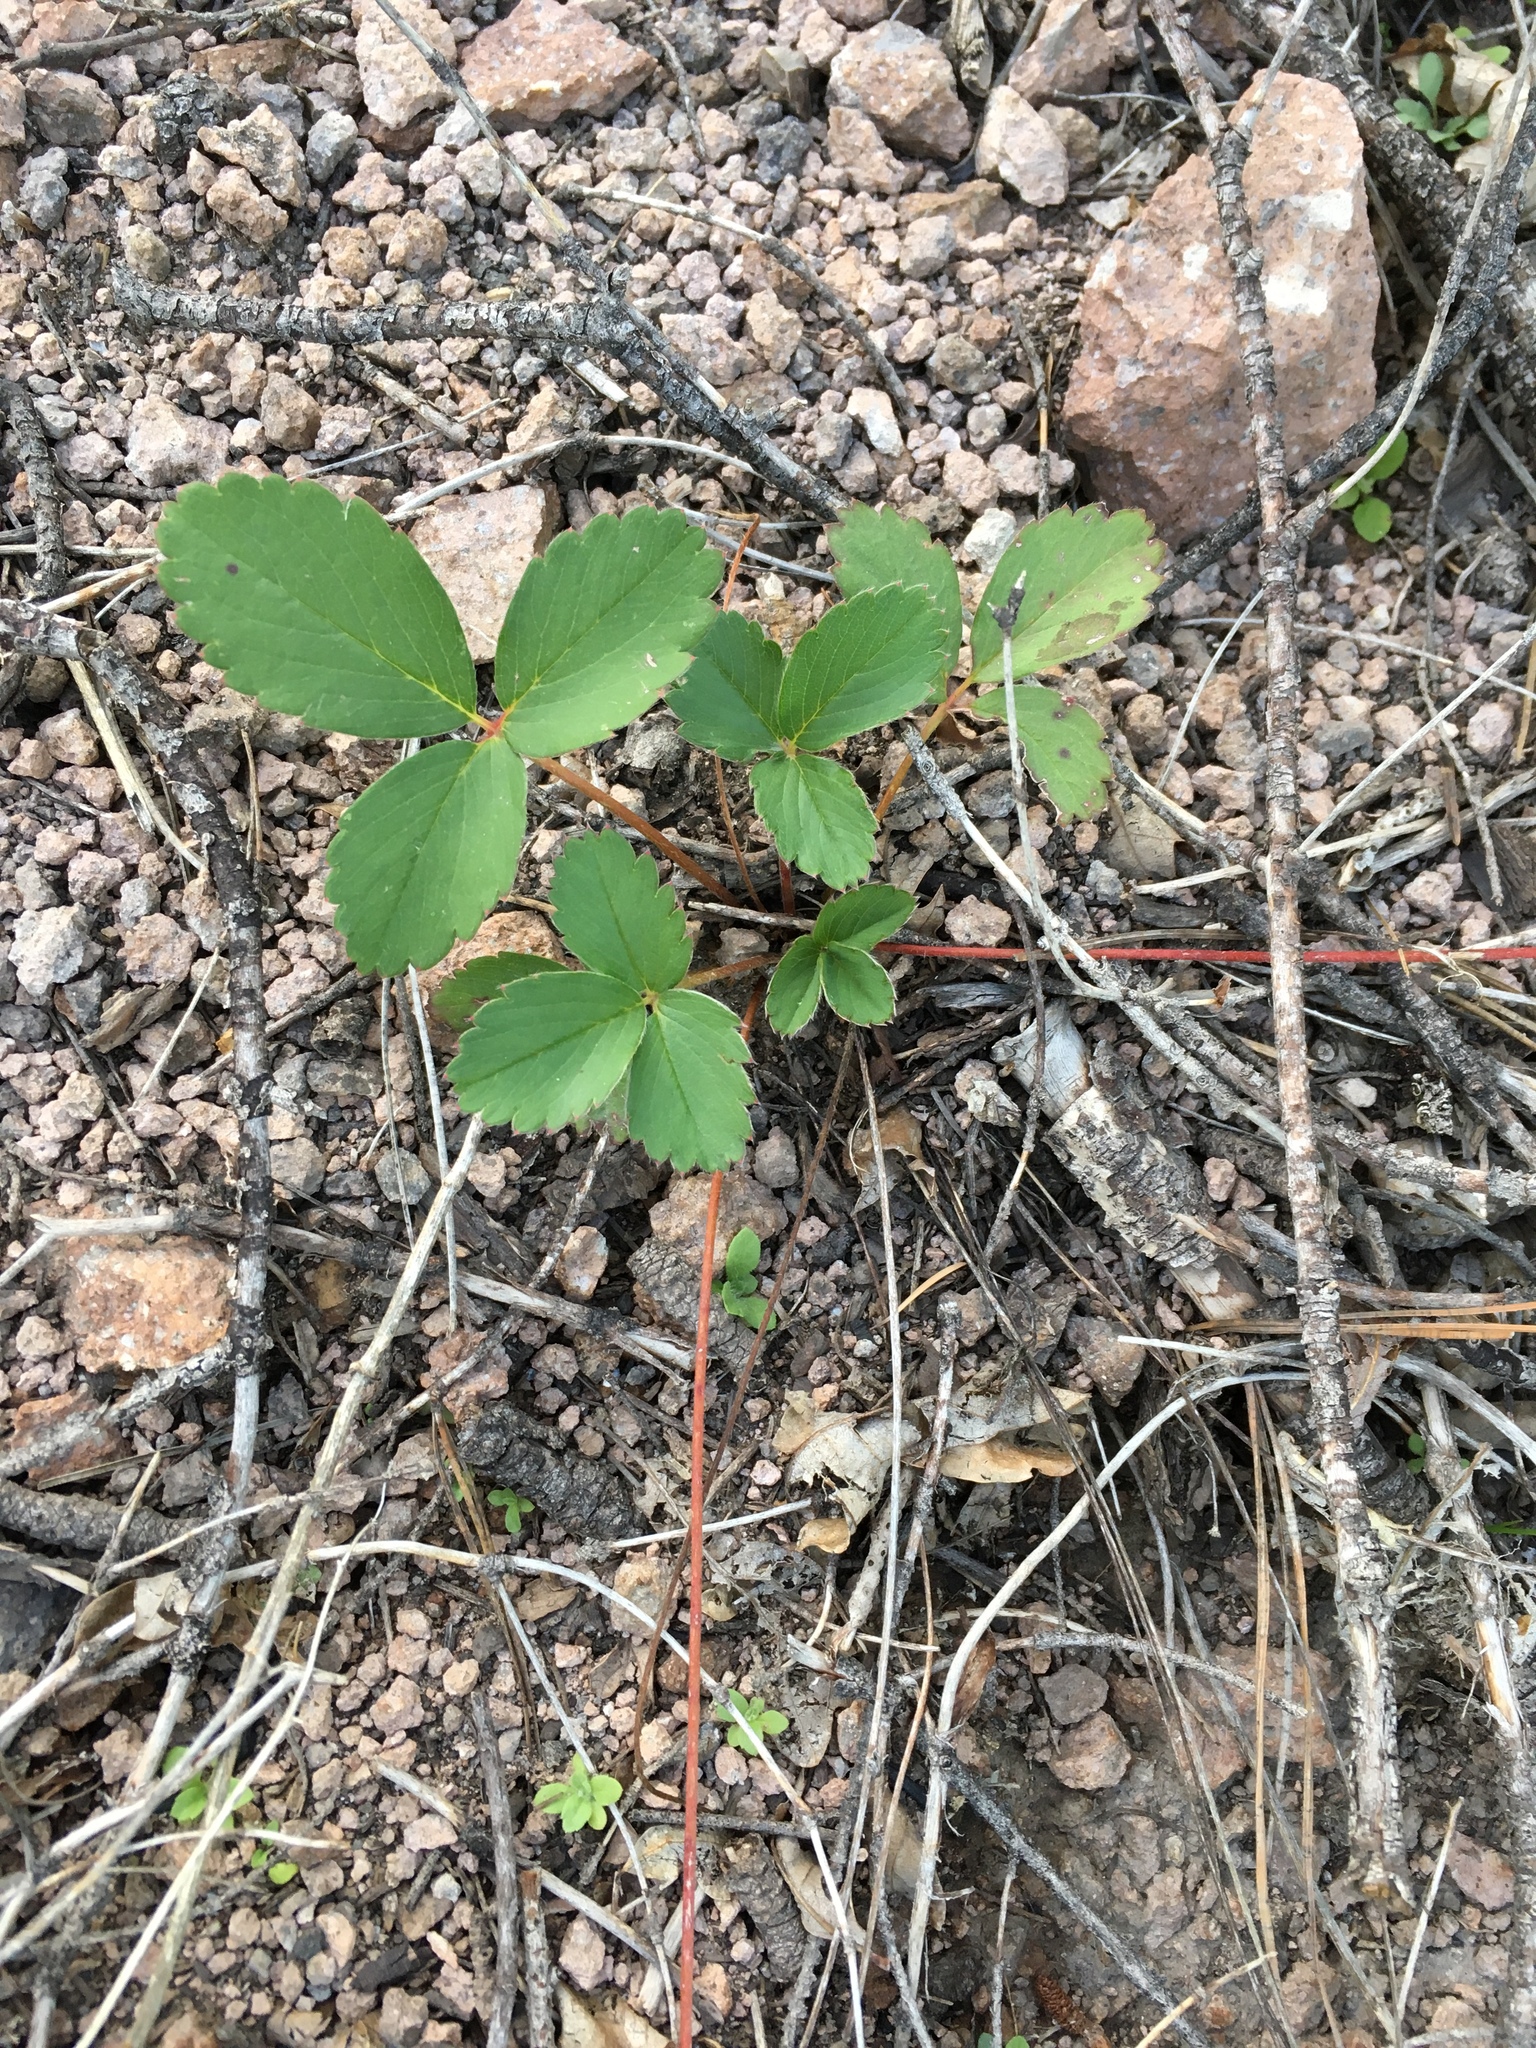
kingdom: Plantae
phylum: Tracheophyta
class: Magnoliopsida
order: Rosales
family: Rosaceae
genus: Fragaria
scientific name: Fragaria virginiana
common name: Thickleaved wild strawberry
